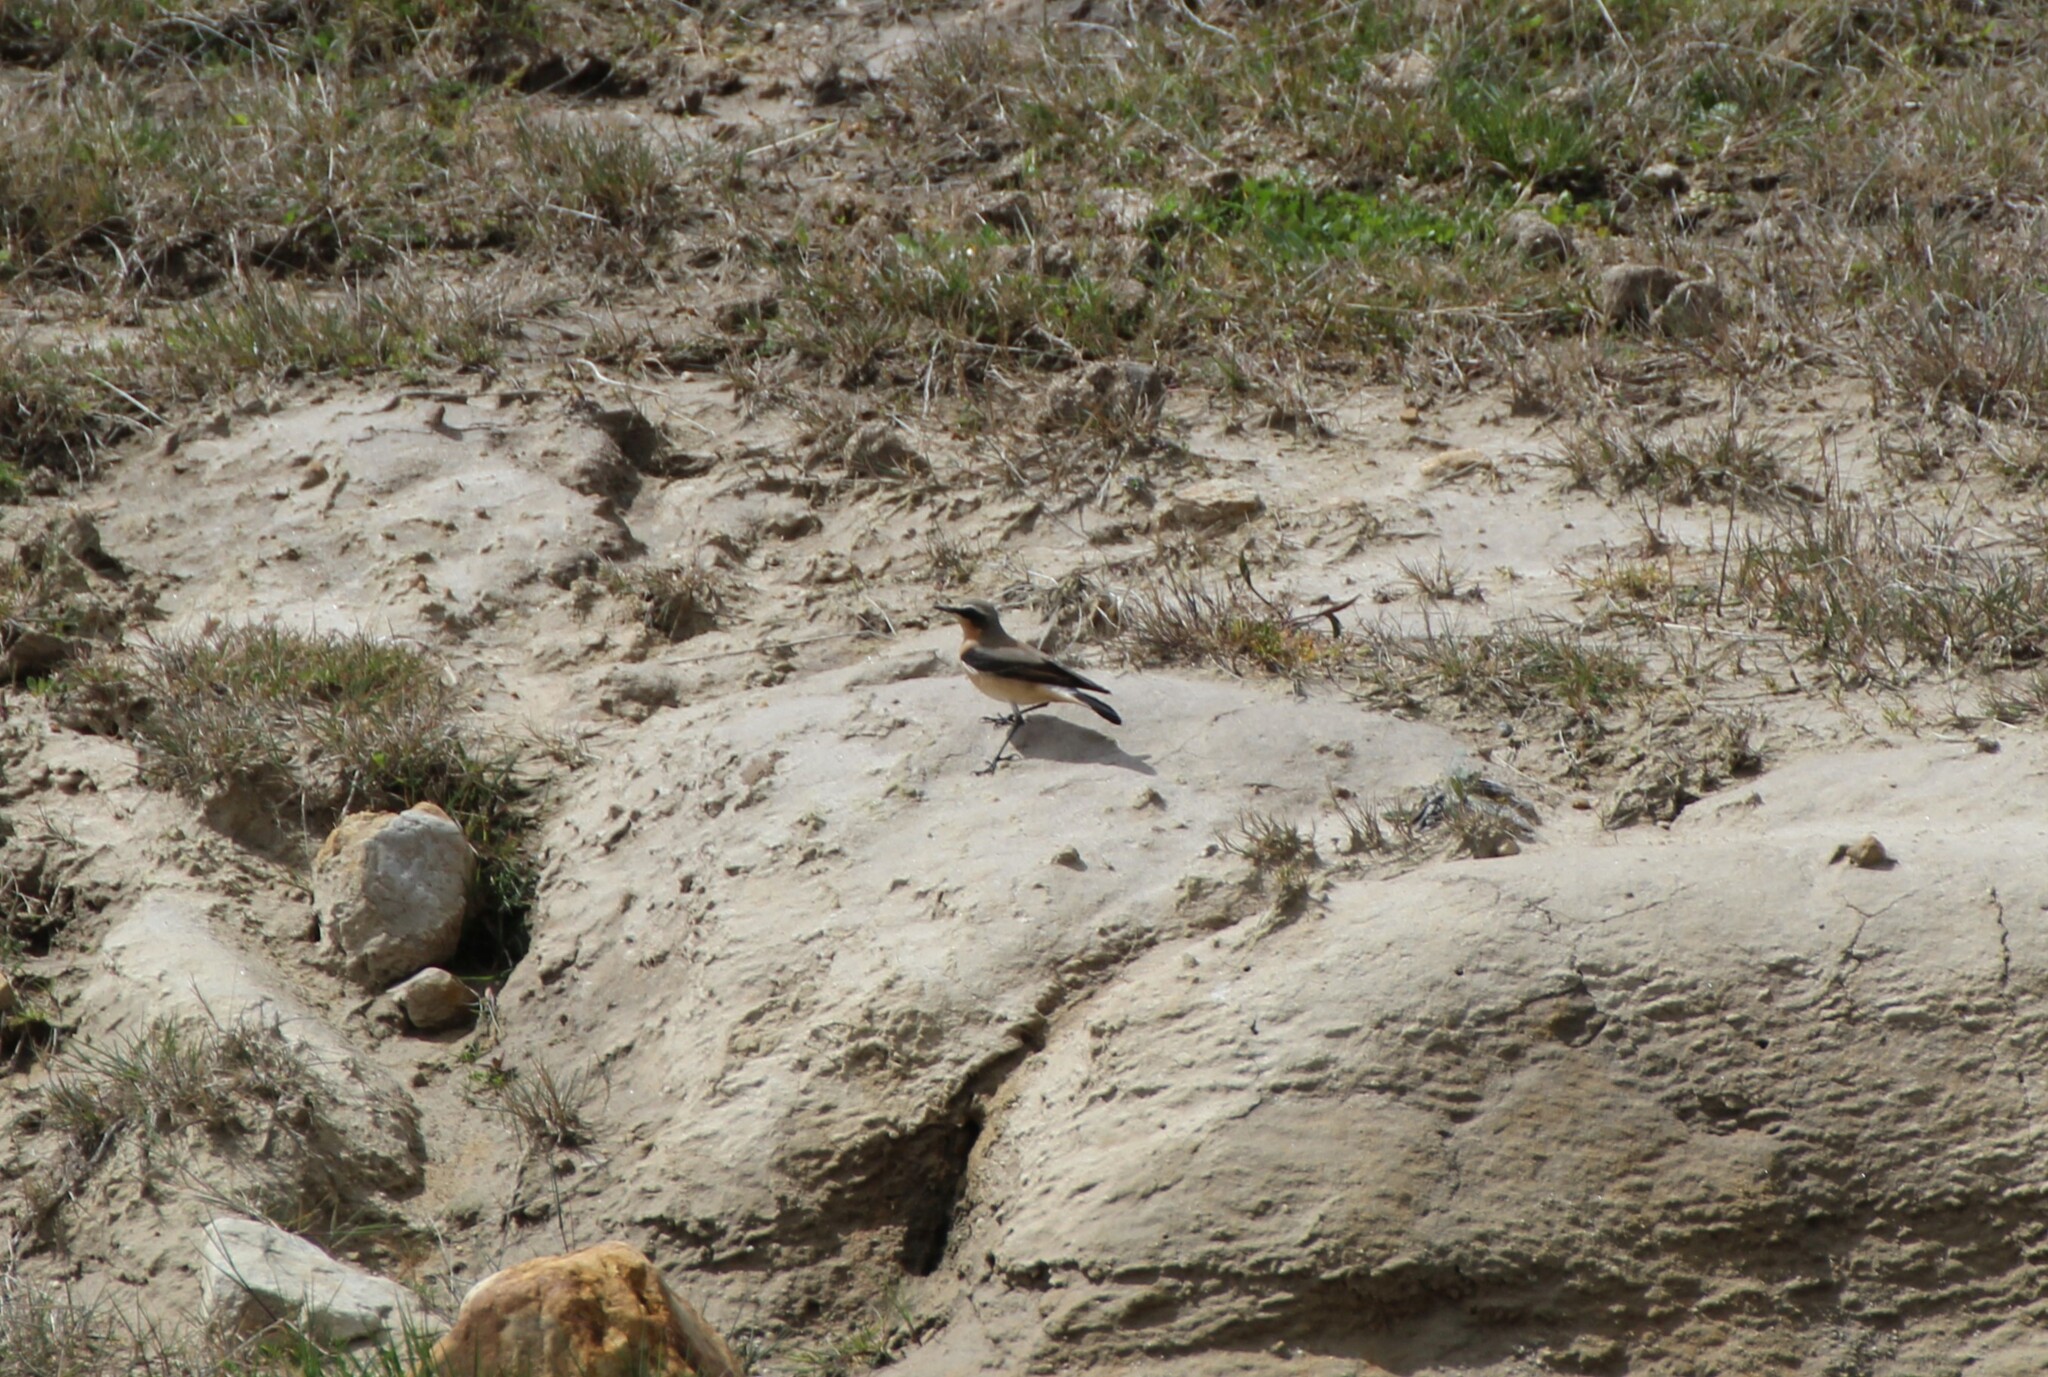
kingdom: Animalia
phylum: Chordata
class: Aves
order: Passeriformes
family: Muscicapidae
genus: Oenanthe
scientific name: Oenanthe oenanthe
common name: Northern wheatear
